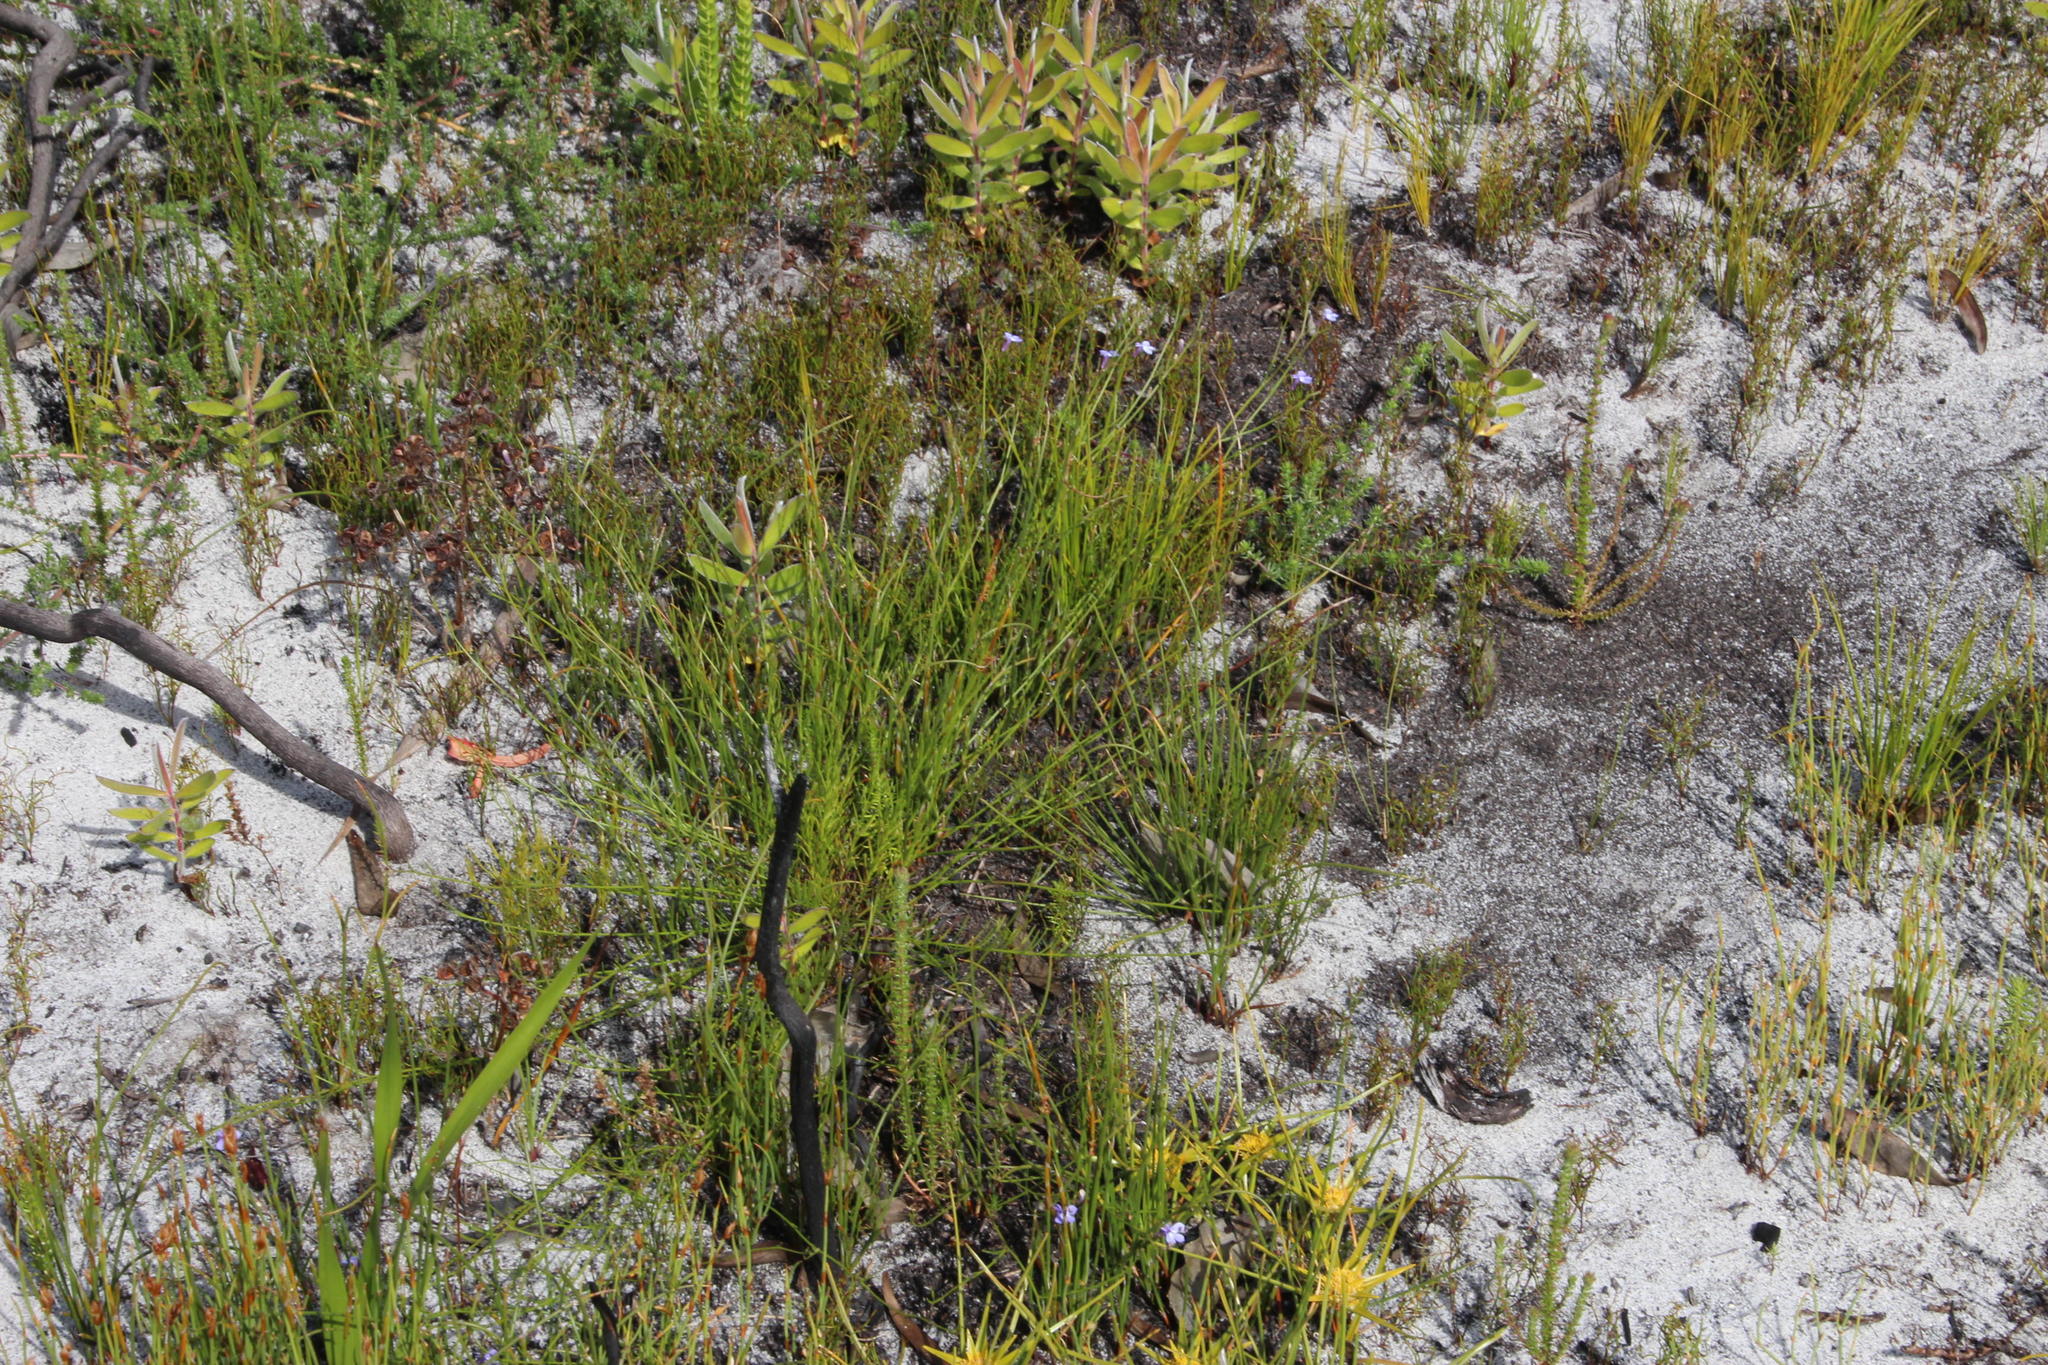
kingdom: Plantae
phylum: Tracheophyta
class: Magnoliopsida
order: Asterales
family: Campanulaceae
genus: Lobelia
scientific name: Lobelia setacea
